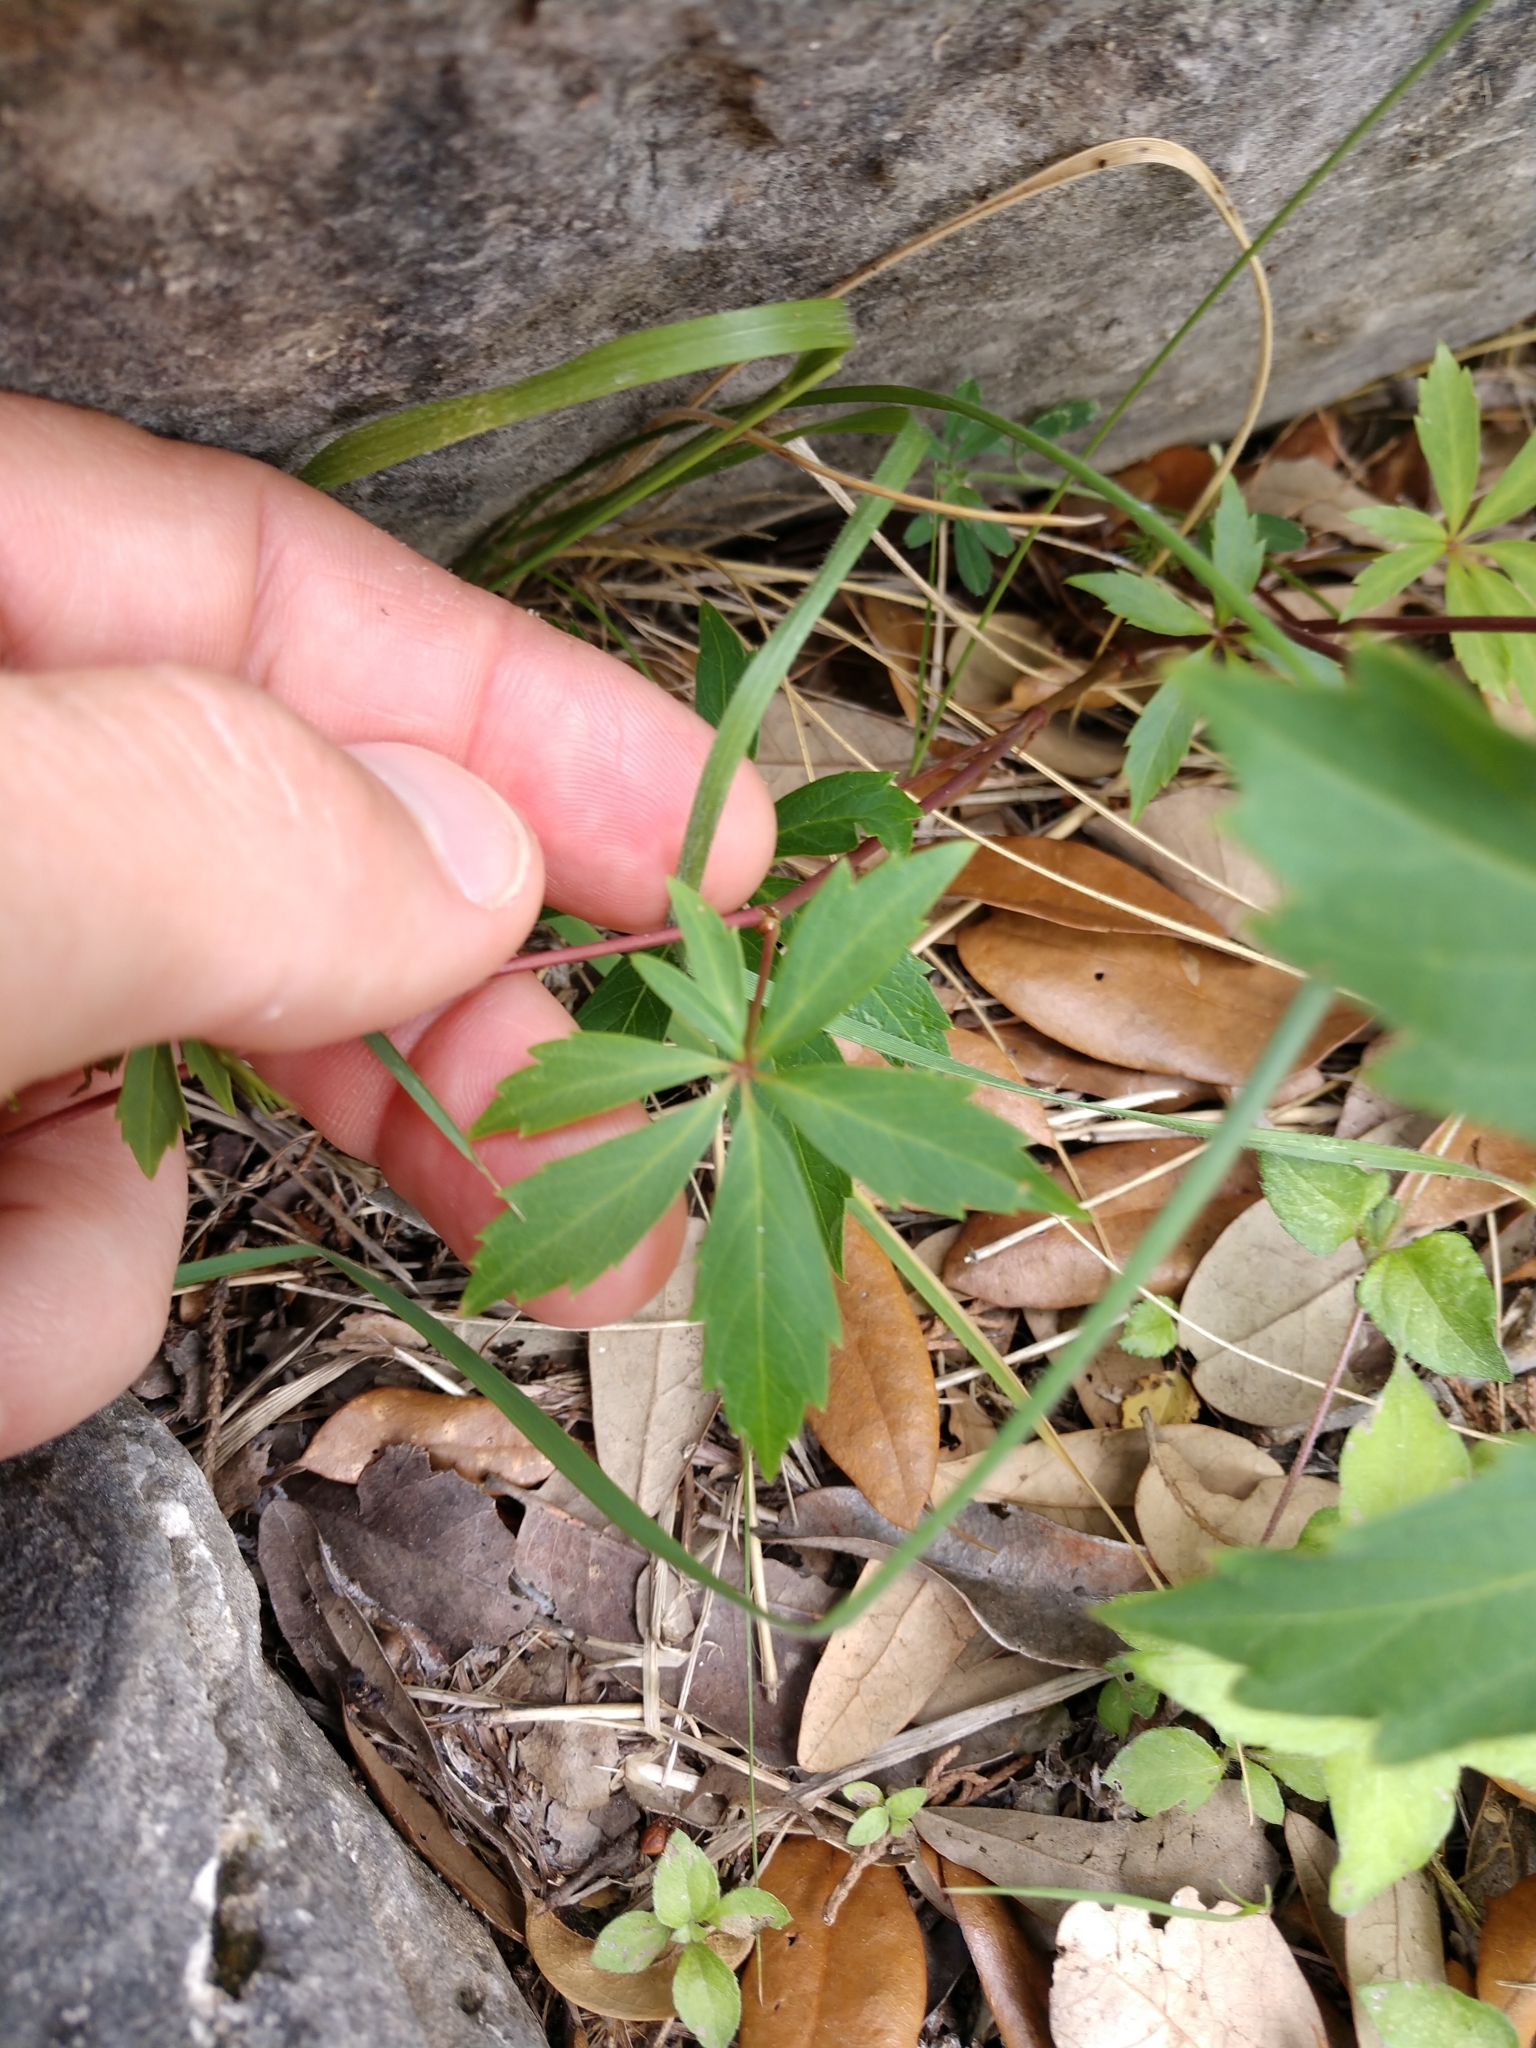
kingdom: Plantae
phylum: Tracheophyta
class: Magnoliopsida
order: Vitales
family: Vitaceae
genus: Parthenocissus
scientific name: Parthenocissus heptaphylla
